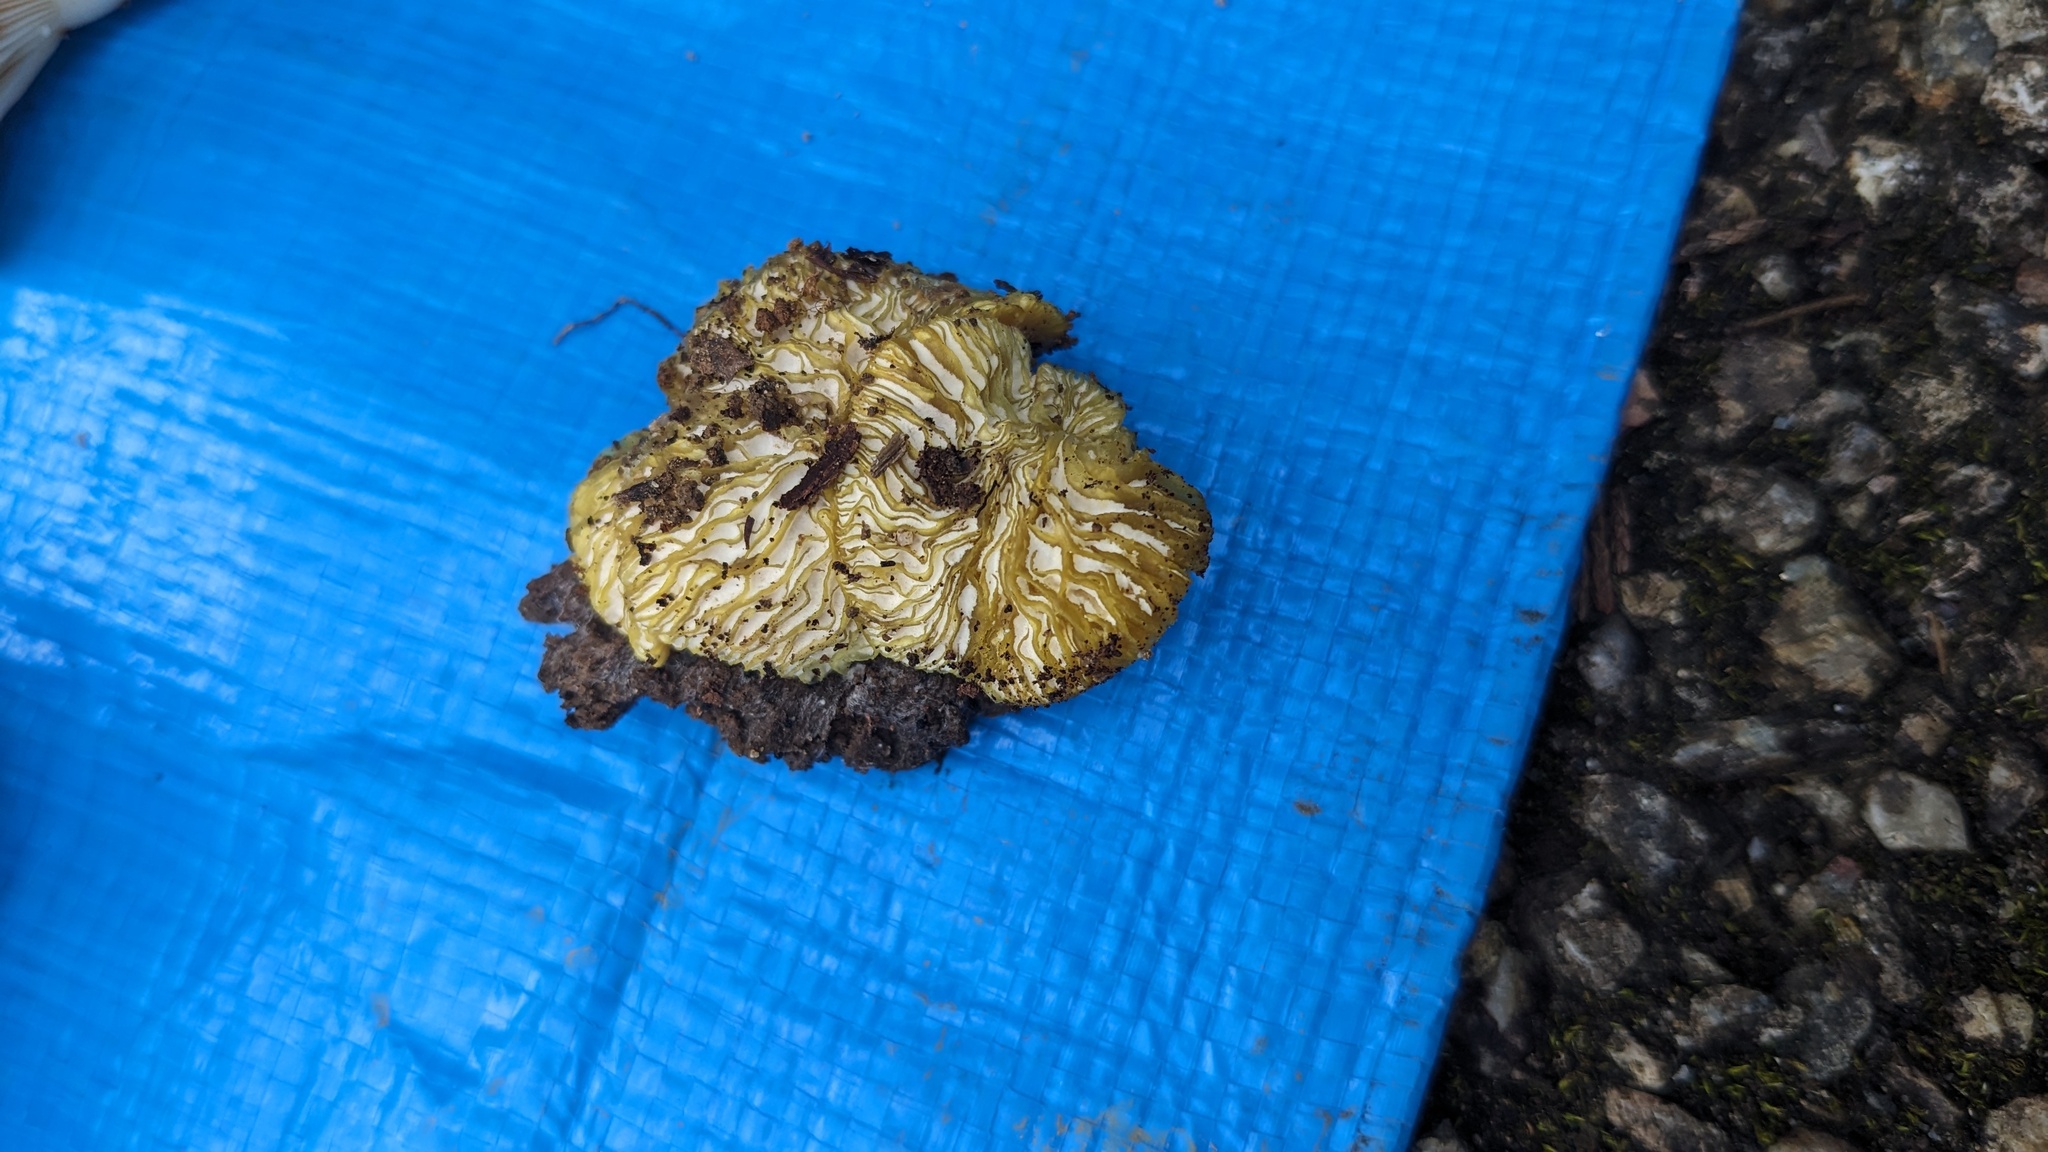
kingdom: Fungi
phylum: Ascomycota
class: Sordariomycetes
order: Hypocreales
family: Bionectriaceae
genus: Nectriopsis
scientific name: Nectriopsis tremellicola
